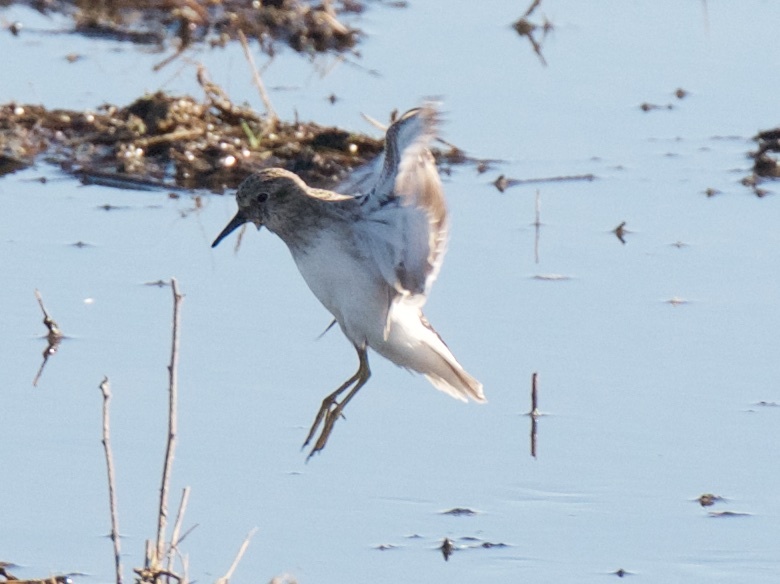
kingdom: Animalia
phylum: Chordata
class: Aves
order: Charadriiformes
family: Scolopacidae
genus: Calidris
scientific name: Calidris minutilla
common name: Least sandpiper
